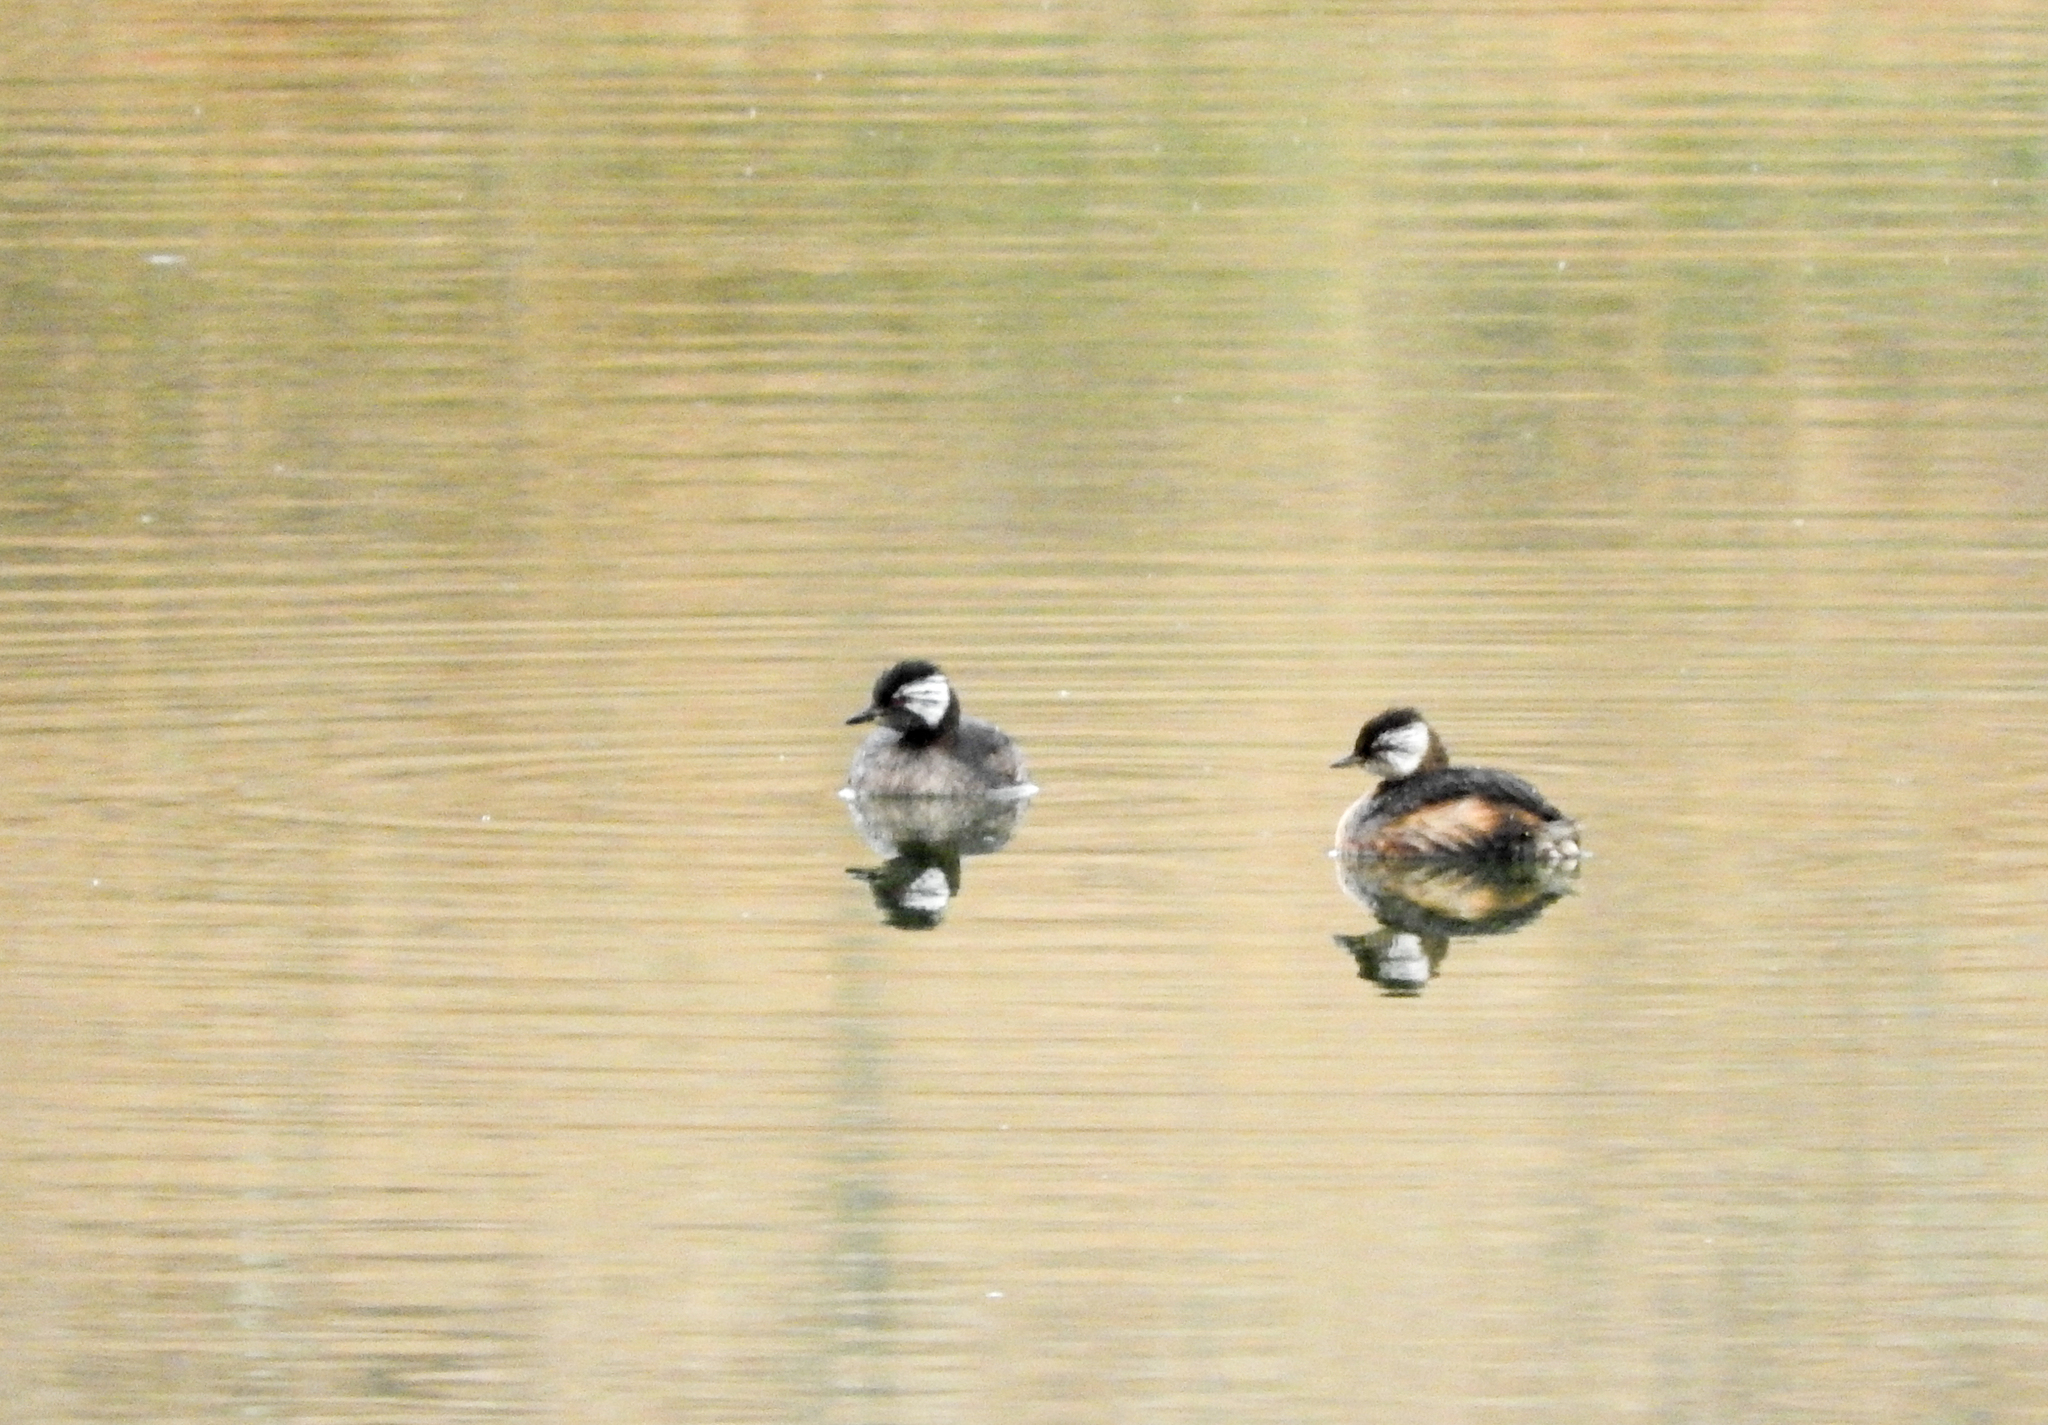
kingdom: Animalia
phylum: Chordata
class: Aves
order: Podicipediformes
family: Podicipedidae
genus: Rollandia
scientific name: Rollandia rolland
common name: White-tufted grebe
